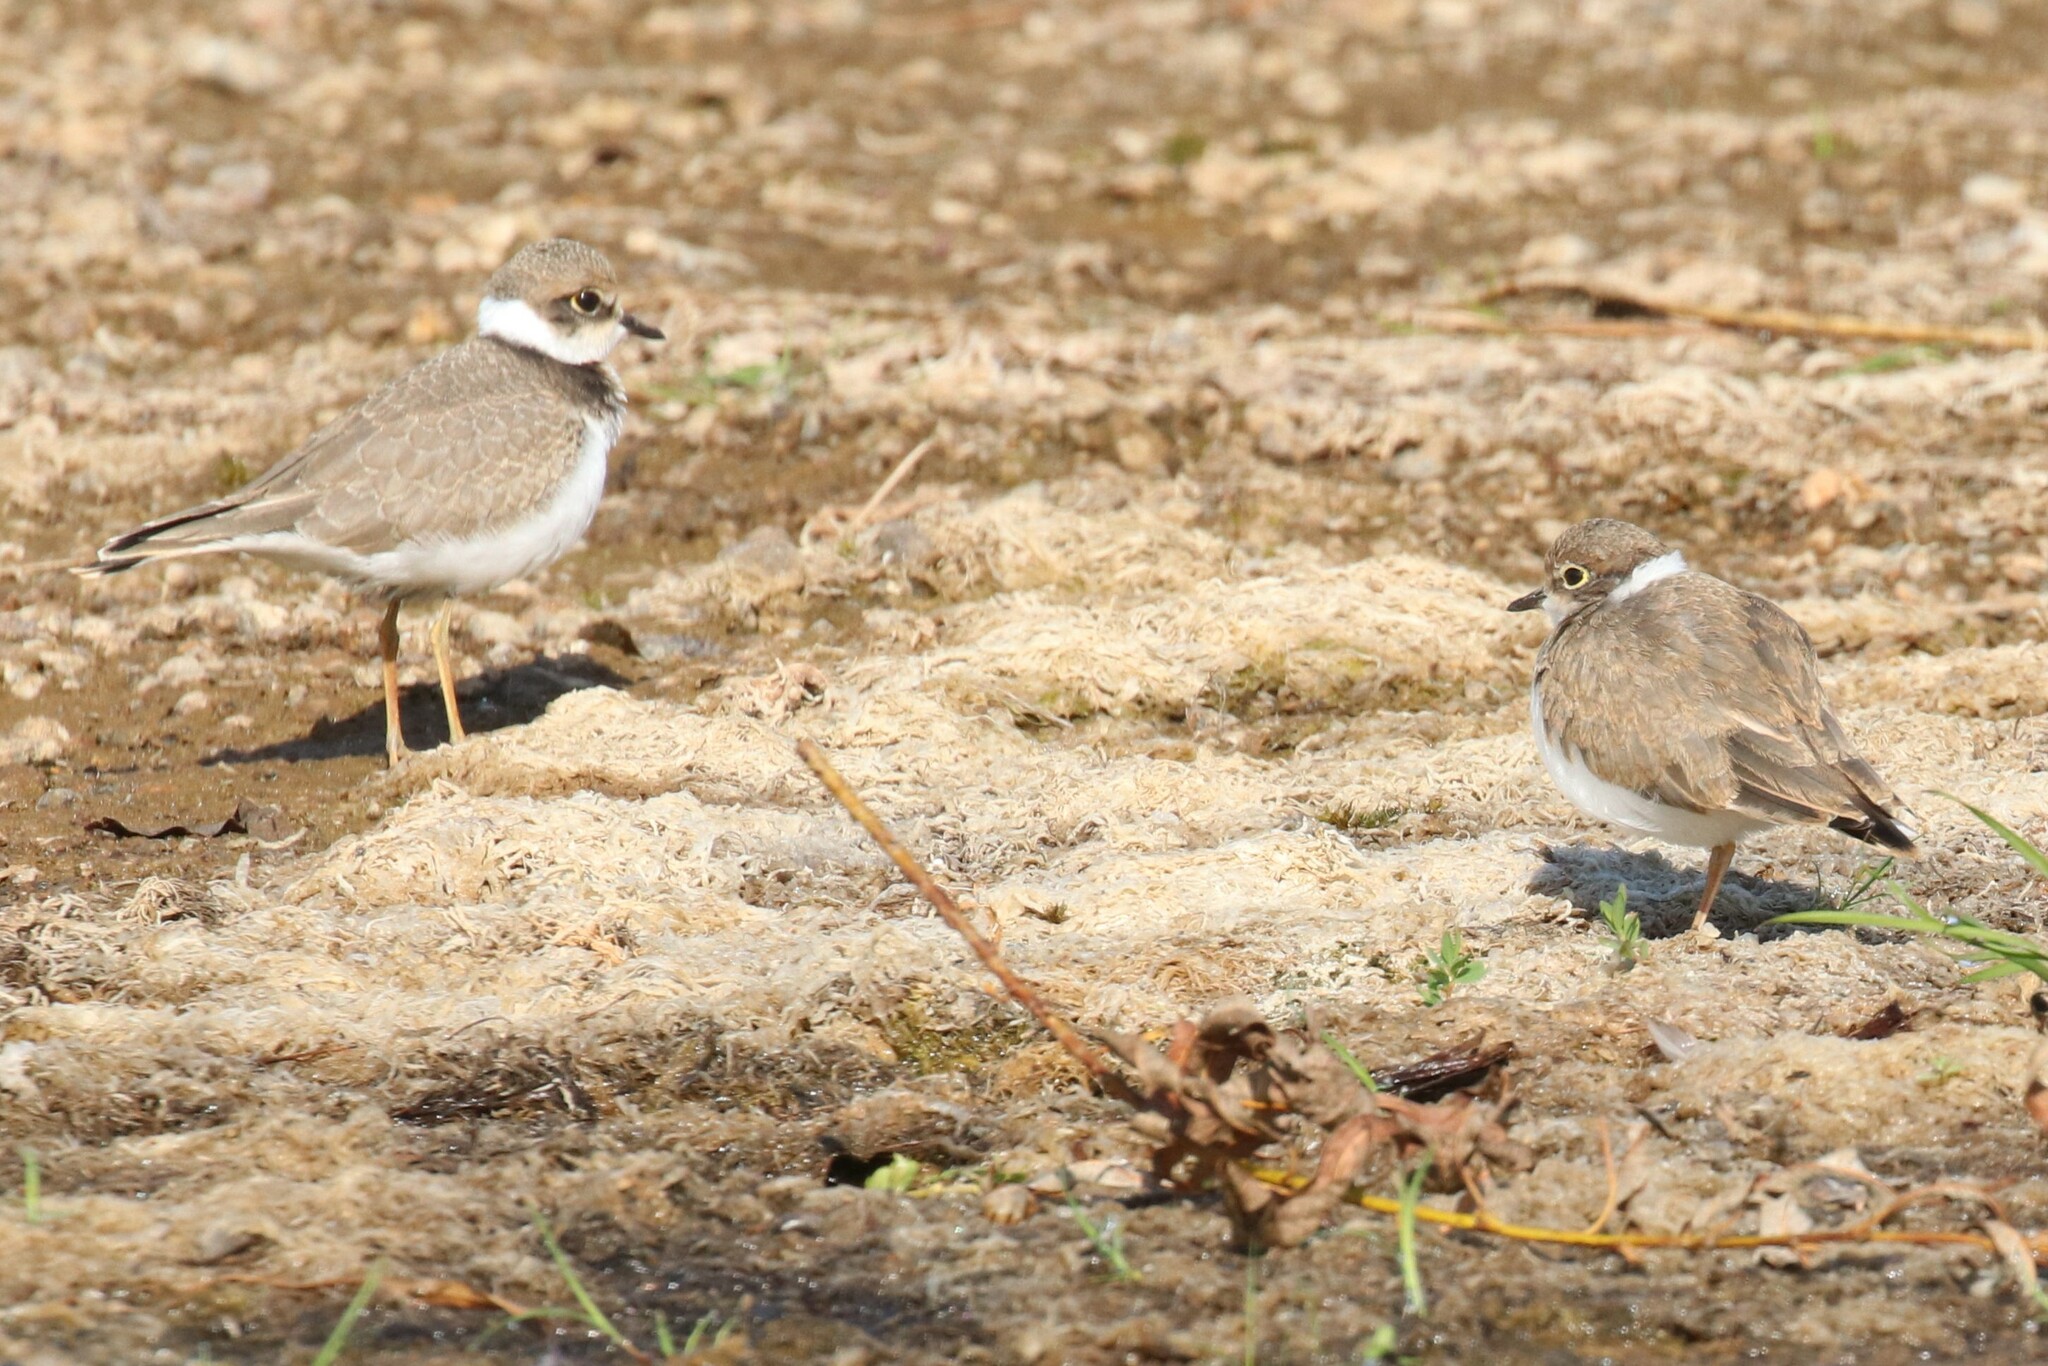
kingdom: Animalia
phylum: Chordata
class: Aves
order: Charadriiformes
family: Charadriidae
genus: Charadrius
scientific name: Charadrius dubius
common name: Little ringed plover
